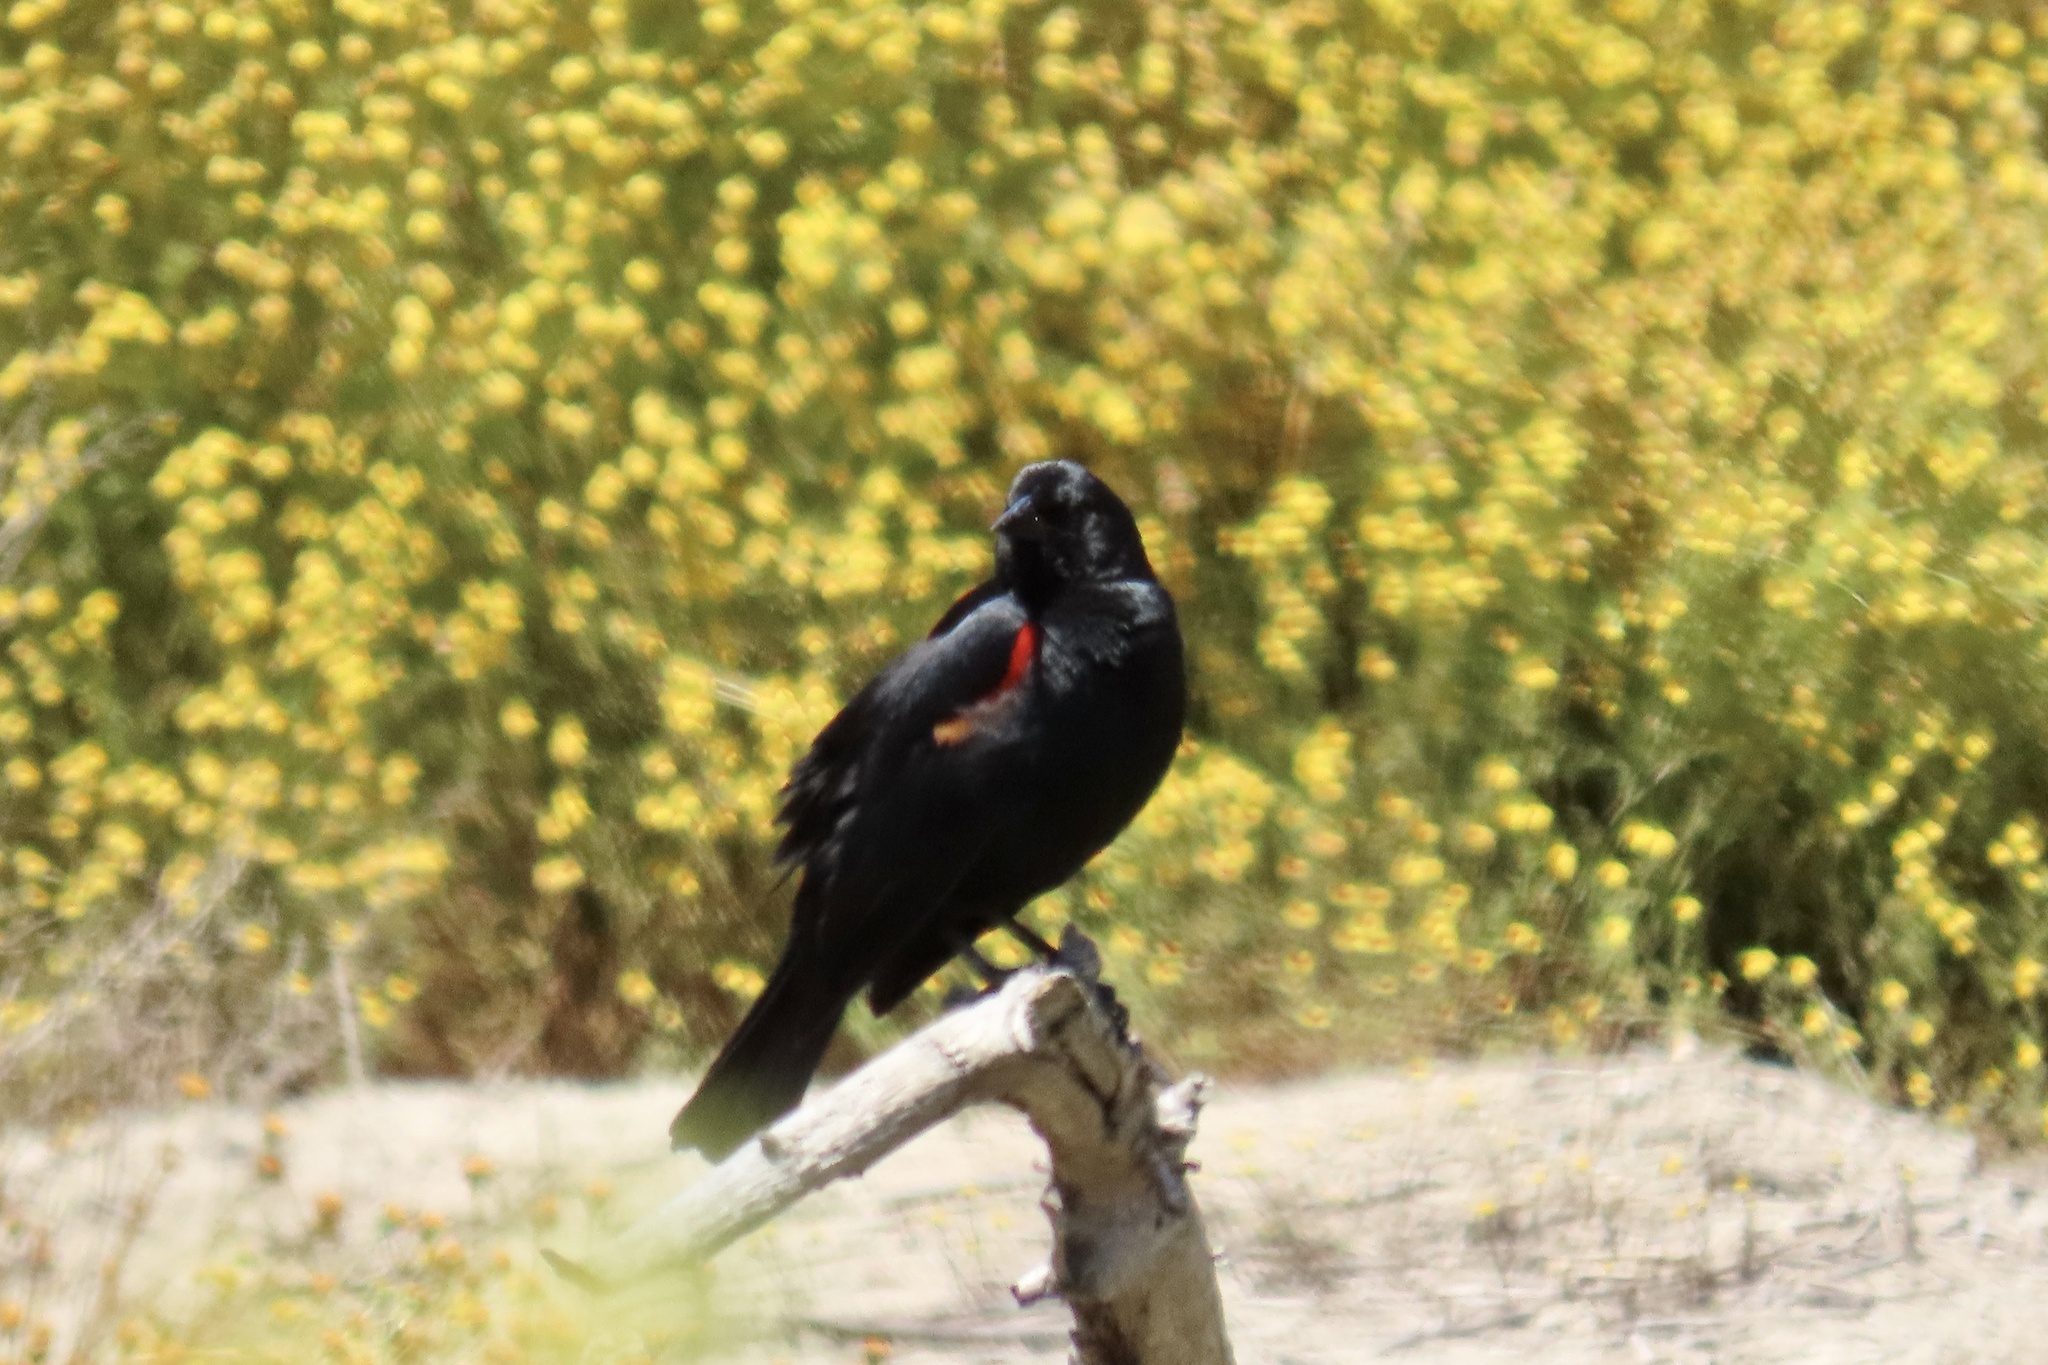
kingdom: Animalia
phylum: Chordata
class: Aves
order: Passeriformes
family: Icteridae
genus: Agelaius
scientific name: Agelaius phoeniceus
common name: Red-winged blackbird
